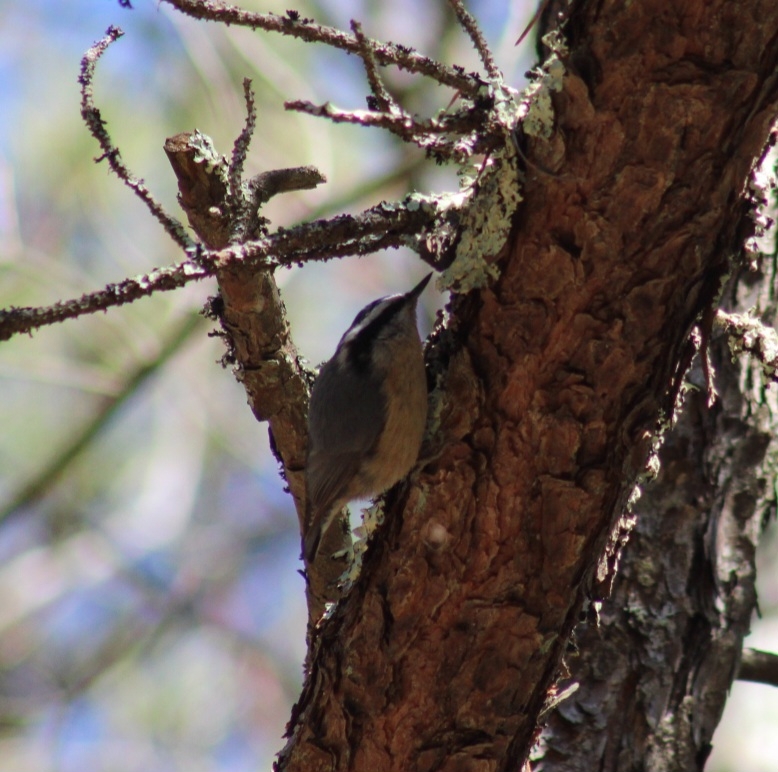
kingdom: Animalia
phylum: Chordata
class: Aves
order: Passeriformes
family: Sittidae
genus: Sitta
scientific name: Sitta canadensis
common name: Red-breasted nuthatch
